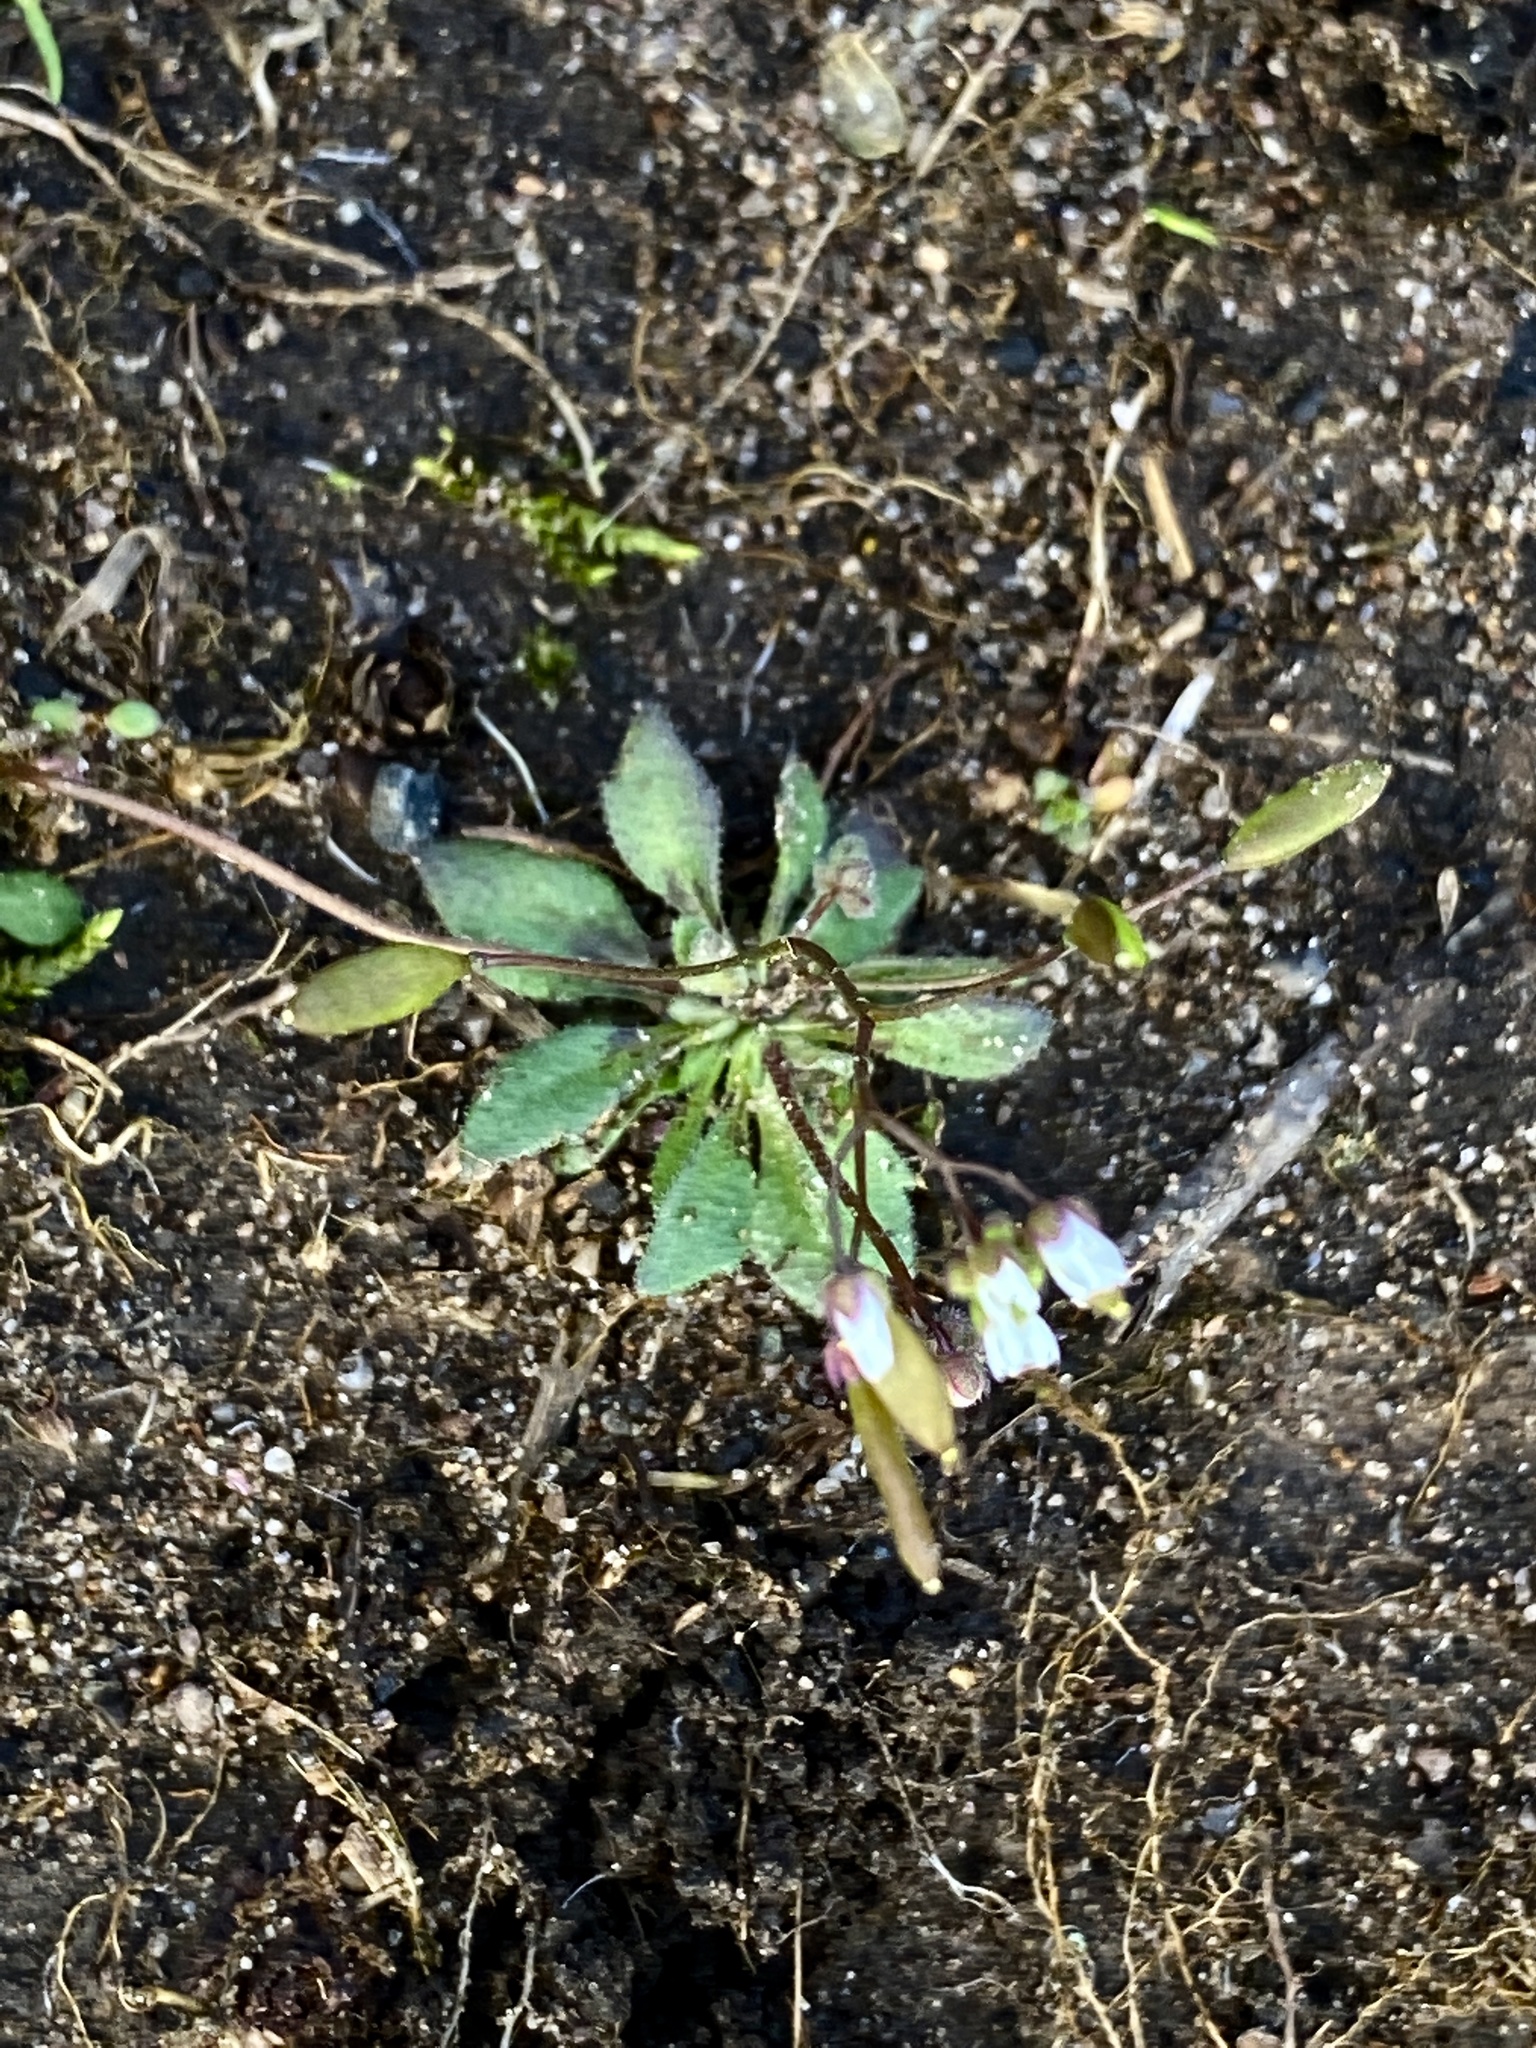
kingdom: Plantae
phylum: Tracheophyta
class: Magnoliopsida
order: Brassicales
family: Brassicaceae
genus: Draba
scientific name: Draba verna
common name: Spring draba
